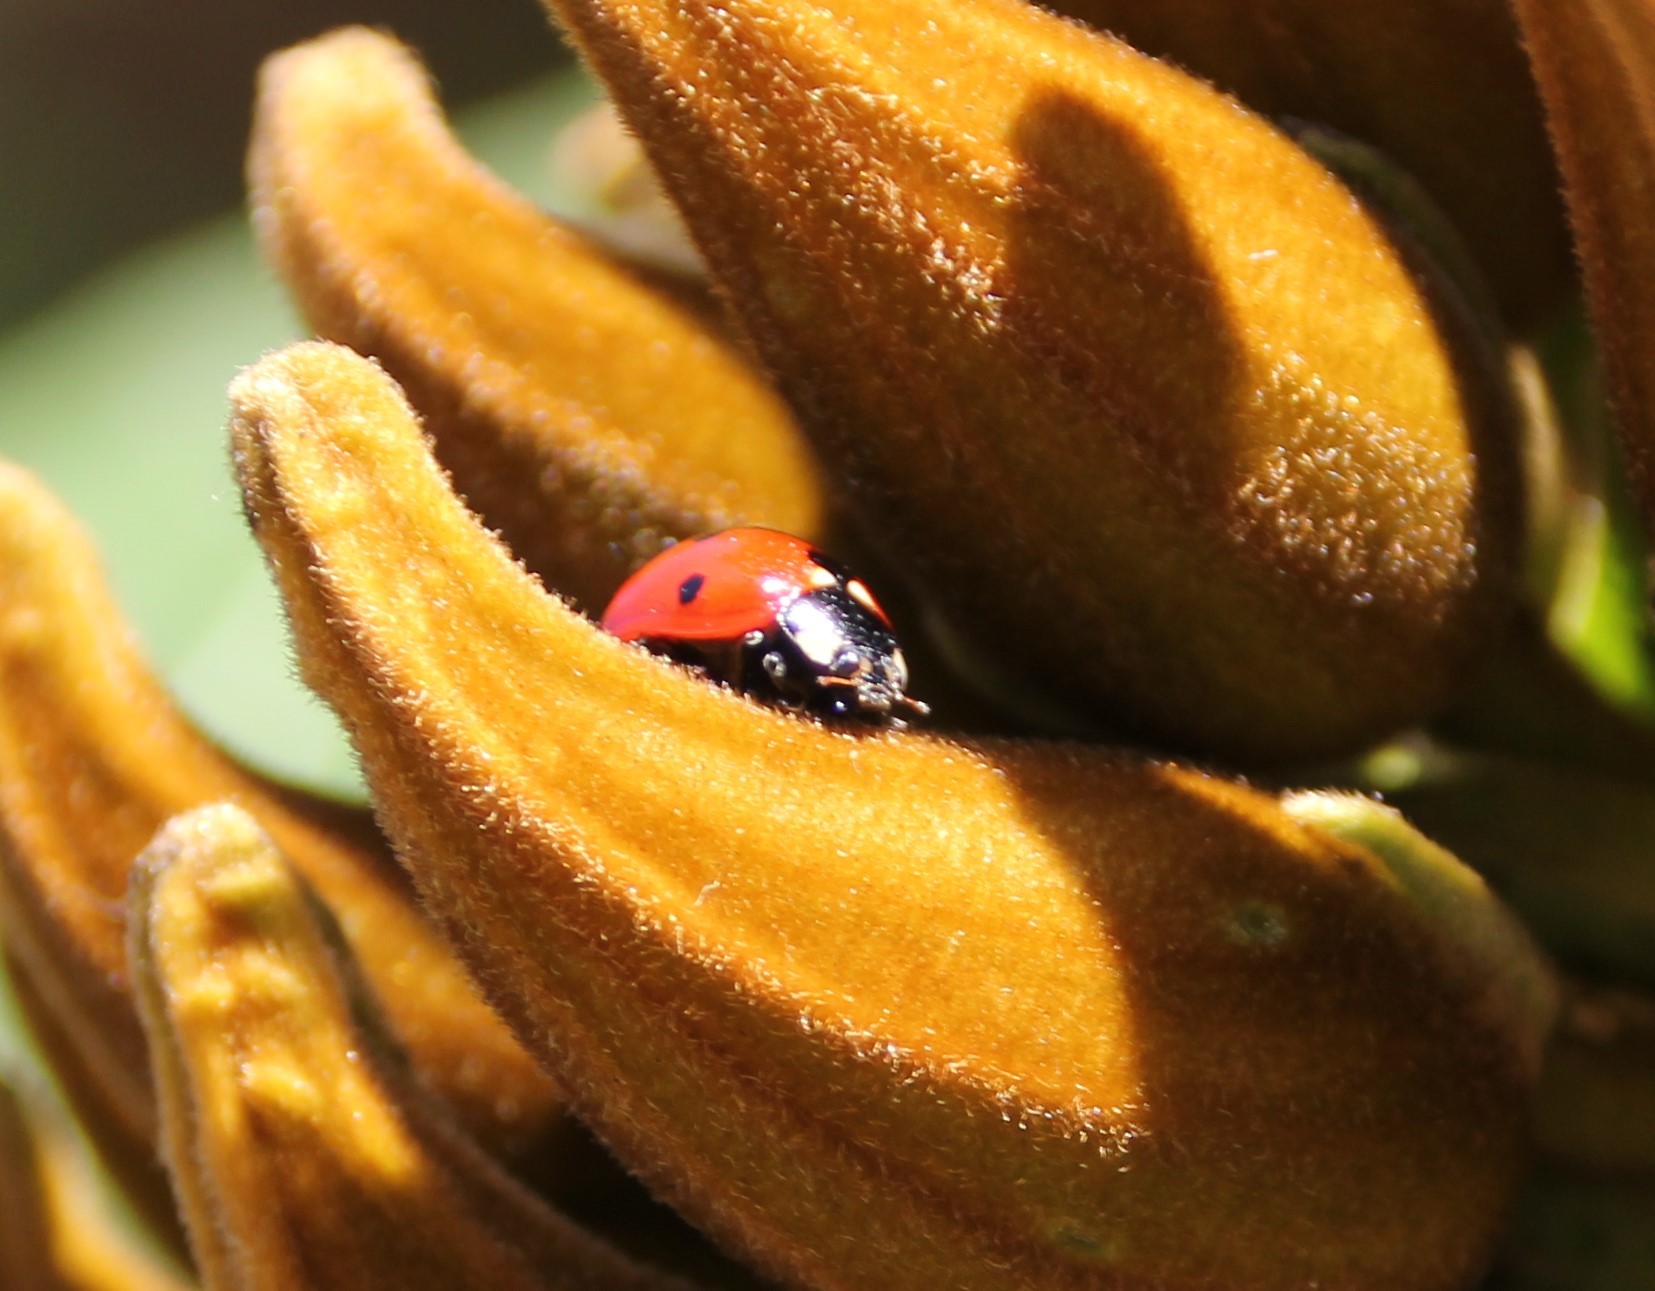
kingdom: Animalia
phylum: Arthropoda
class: Insecta
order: Coleoptera
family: Coccinellidae
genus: Coccinella
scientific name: Coccinella septempunctata
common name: Sevenspotted lady beetle
